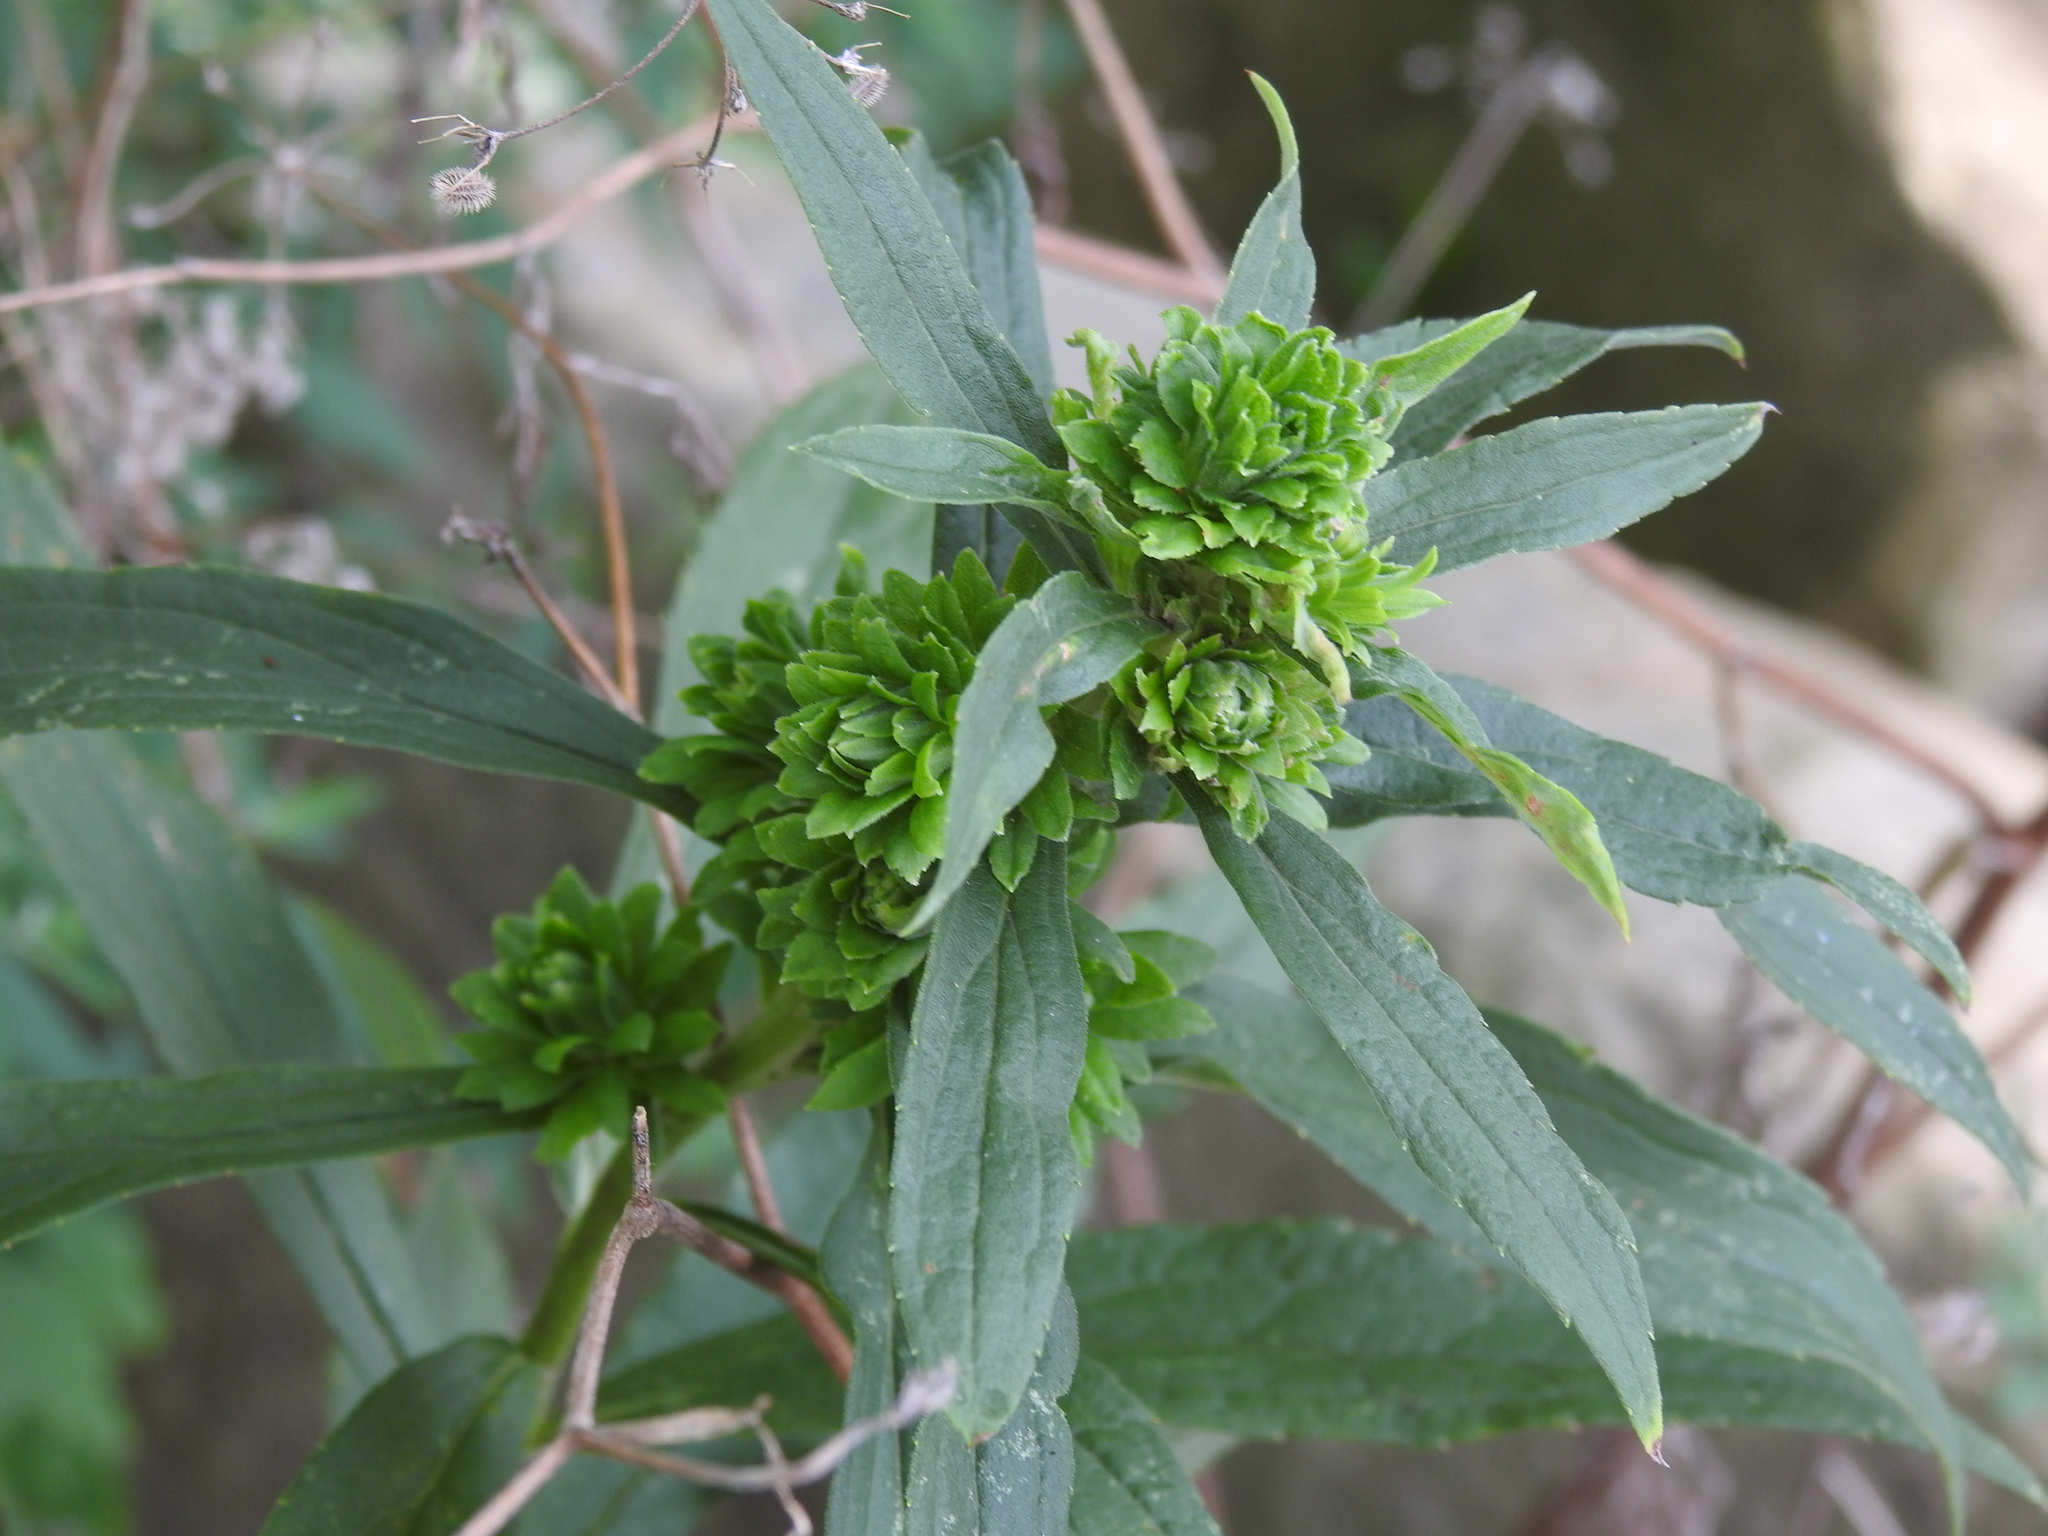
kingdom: Animalia
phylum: Arthropoda
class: Insecta
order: Diptera
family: Tephritidae
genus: Procecidochares
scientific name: Procecidochares atra
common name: Goldenrod brussels sprout gall fly
